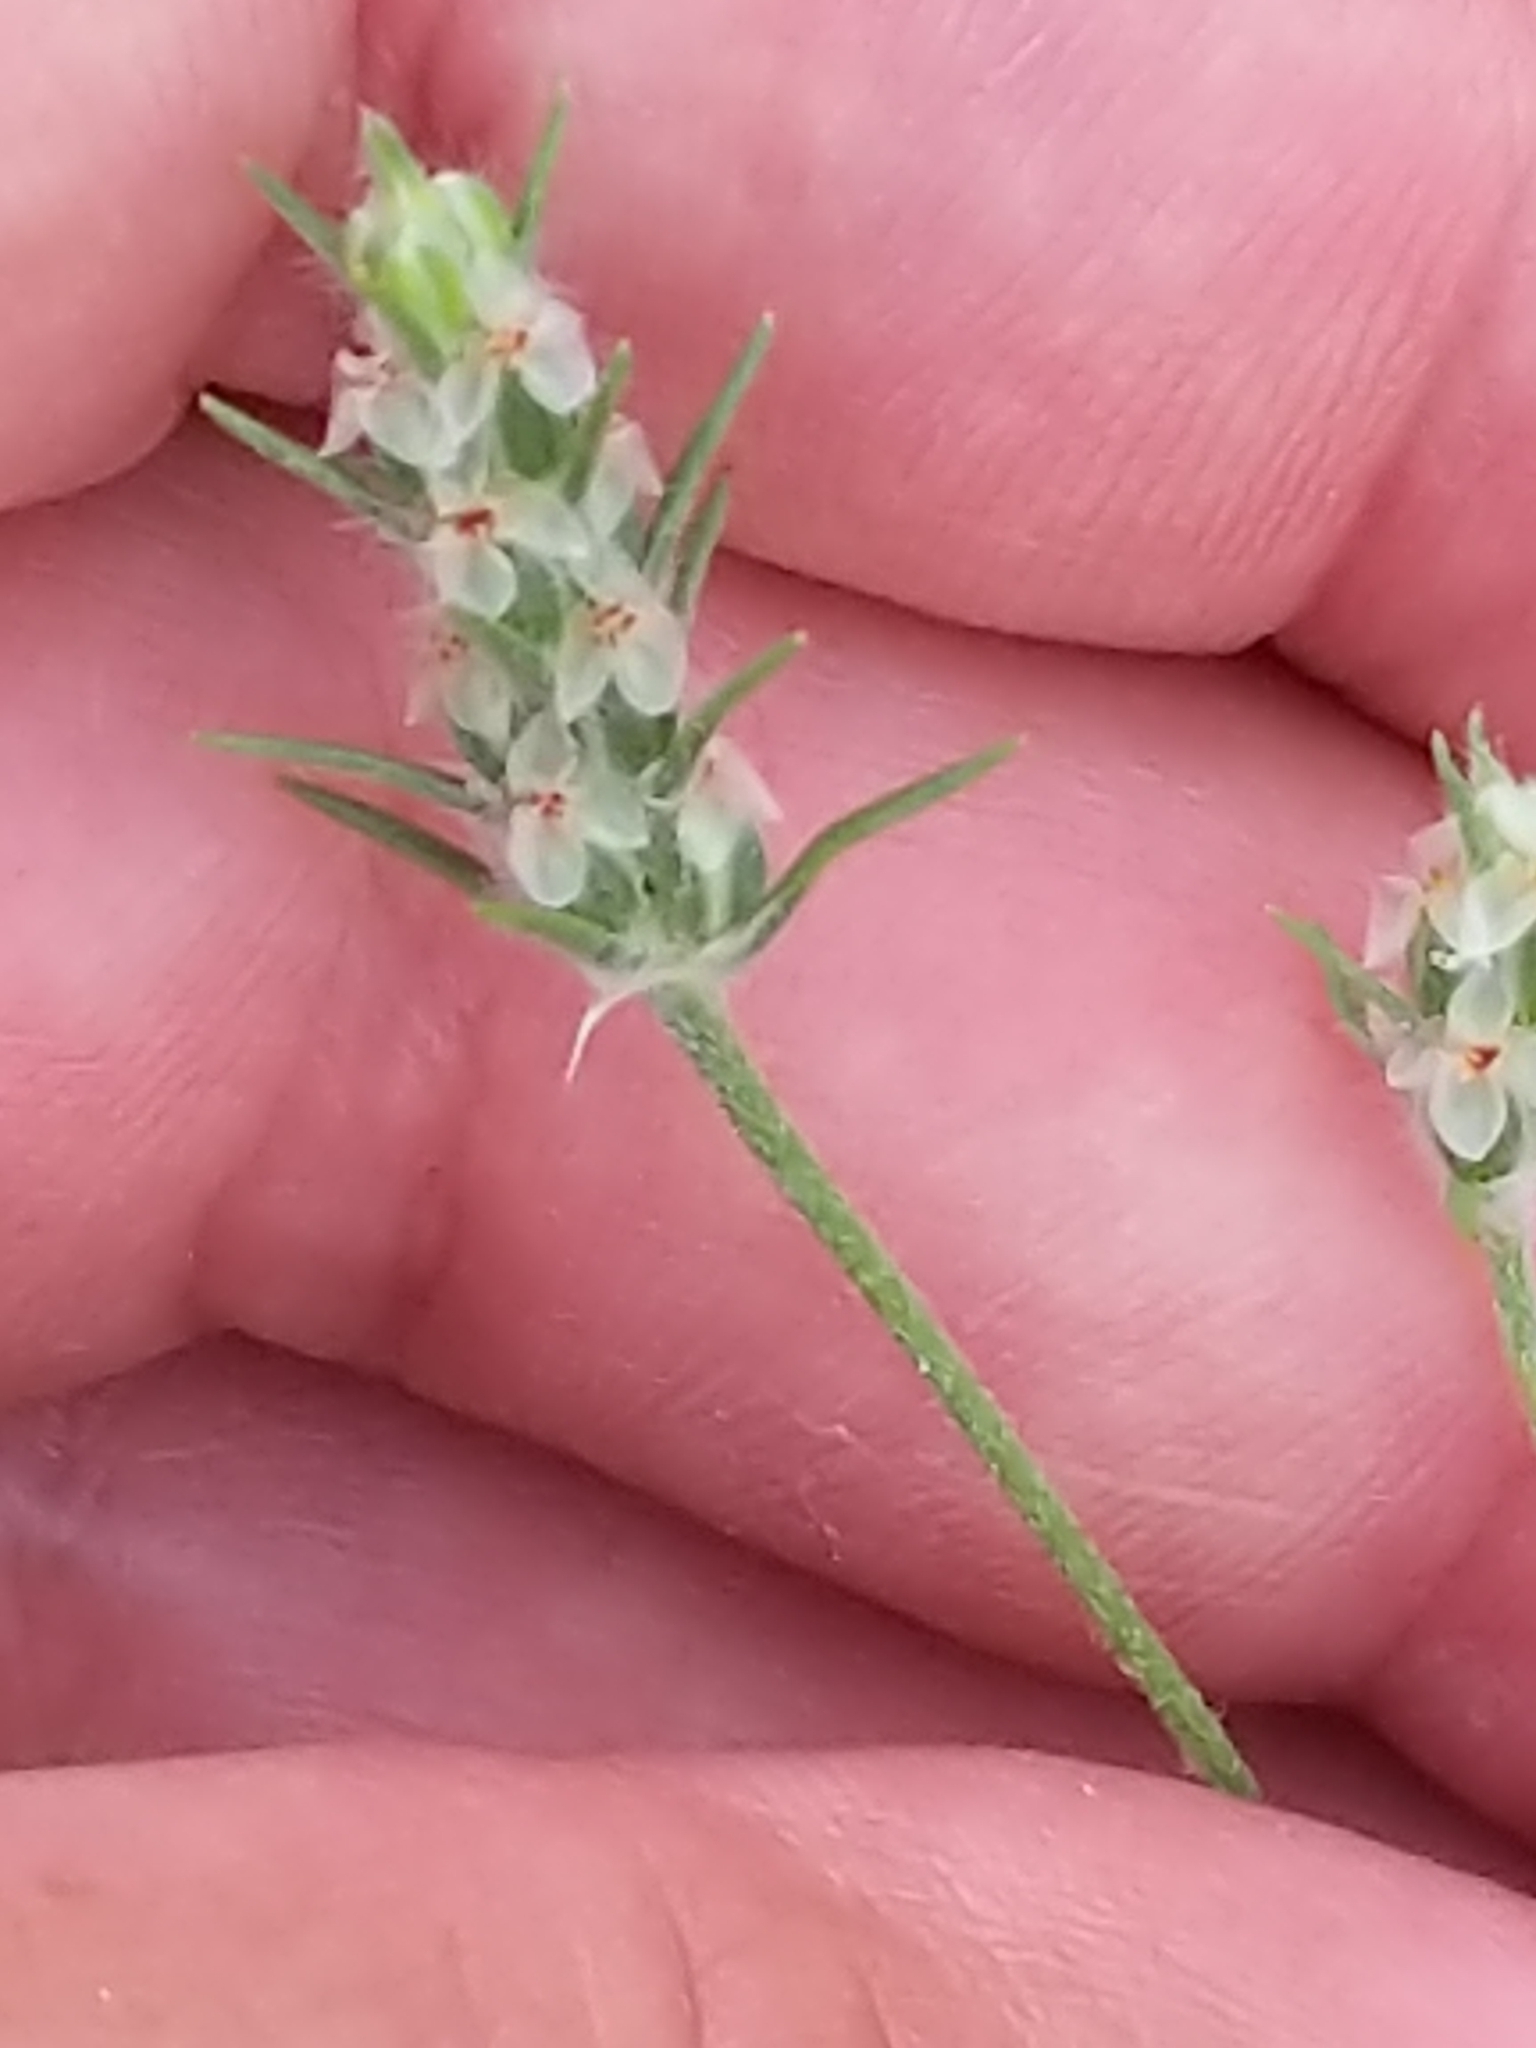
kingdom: Plantae
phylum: Tracheophyta
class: Magnoliopsida
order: Lamiales
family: Plantaginaceae
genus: Plantago
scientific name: Plantago aristata
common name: Bracted plantain
